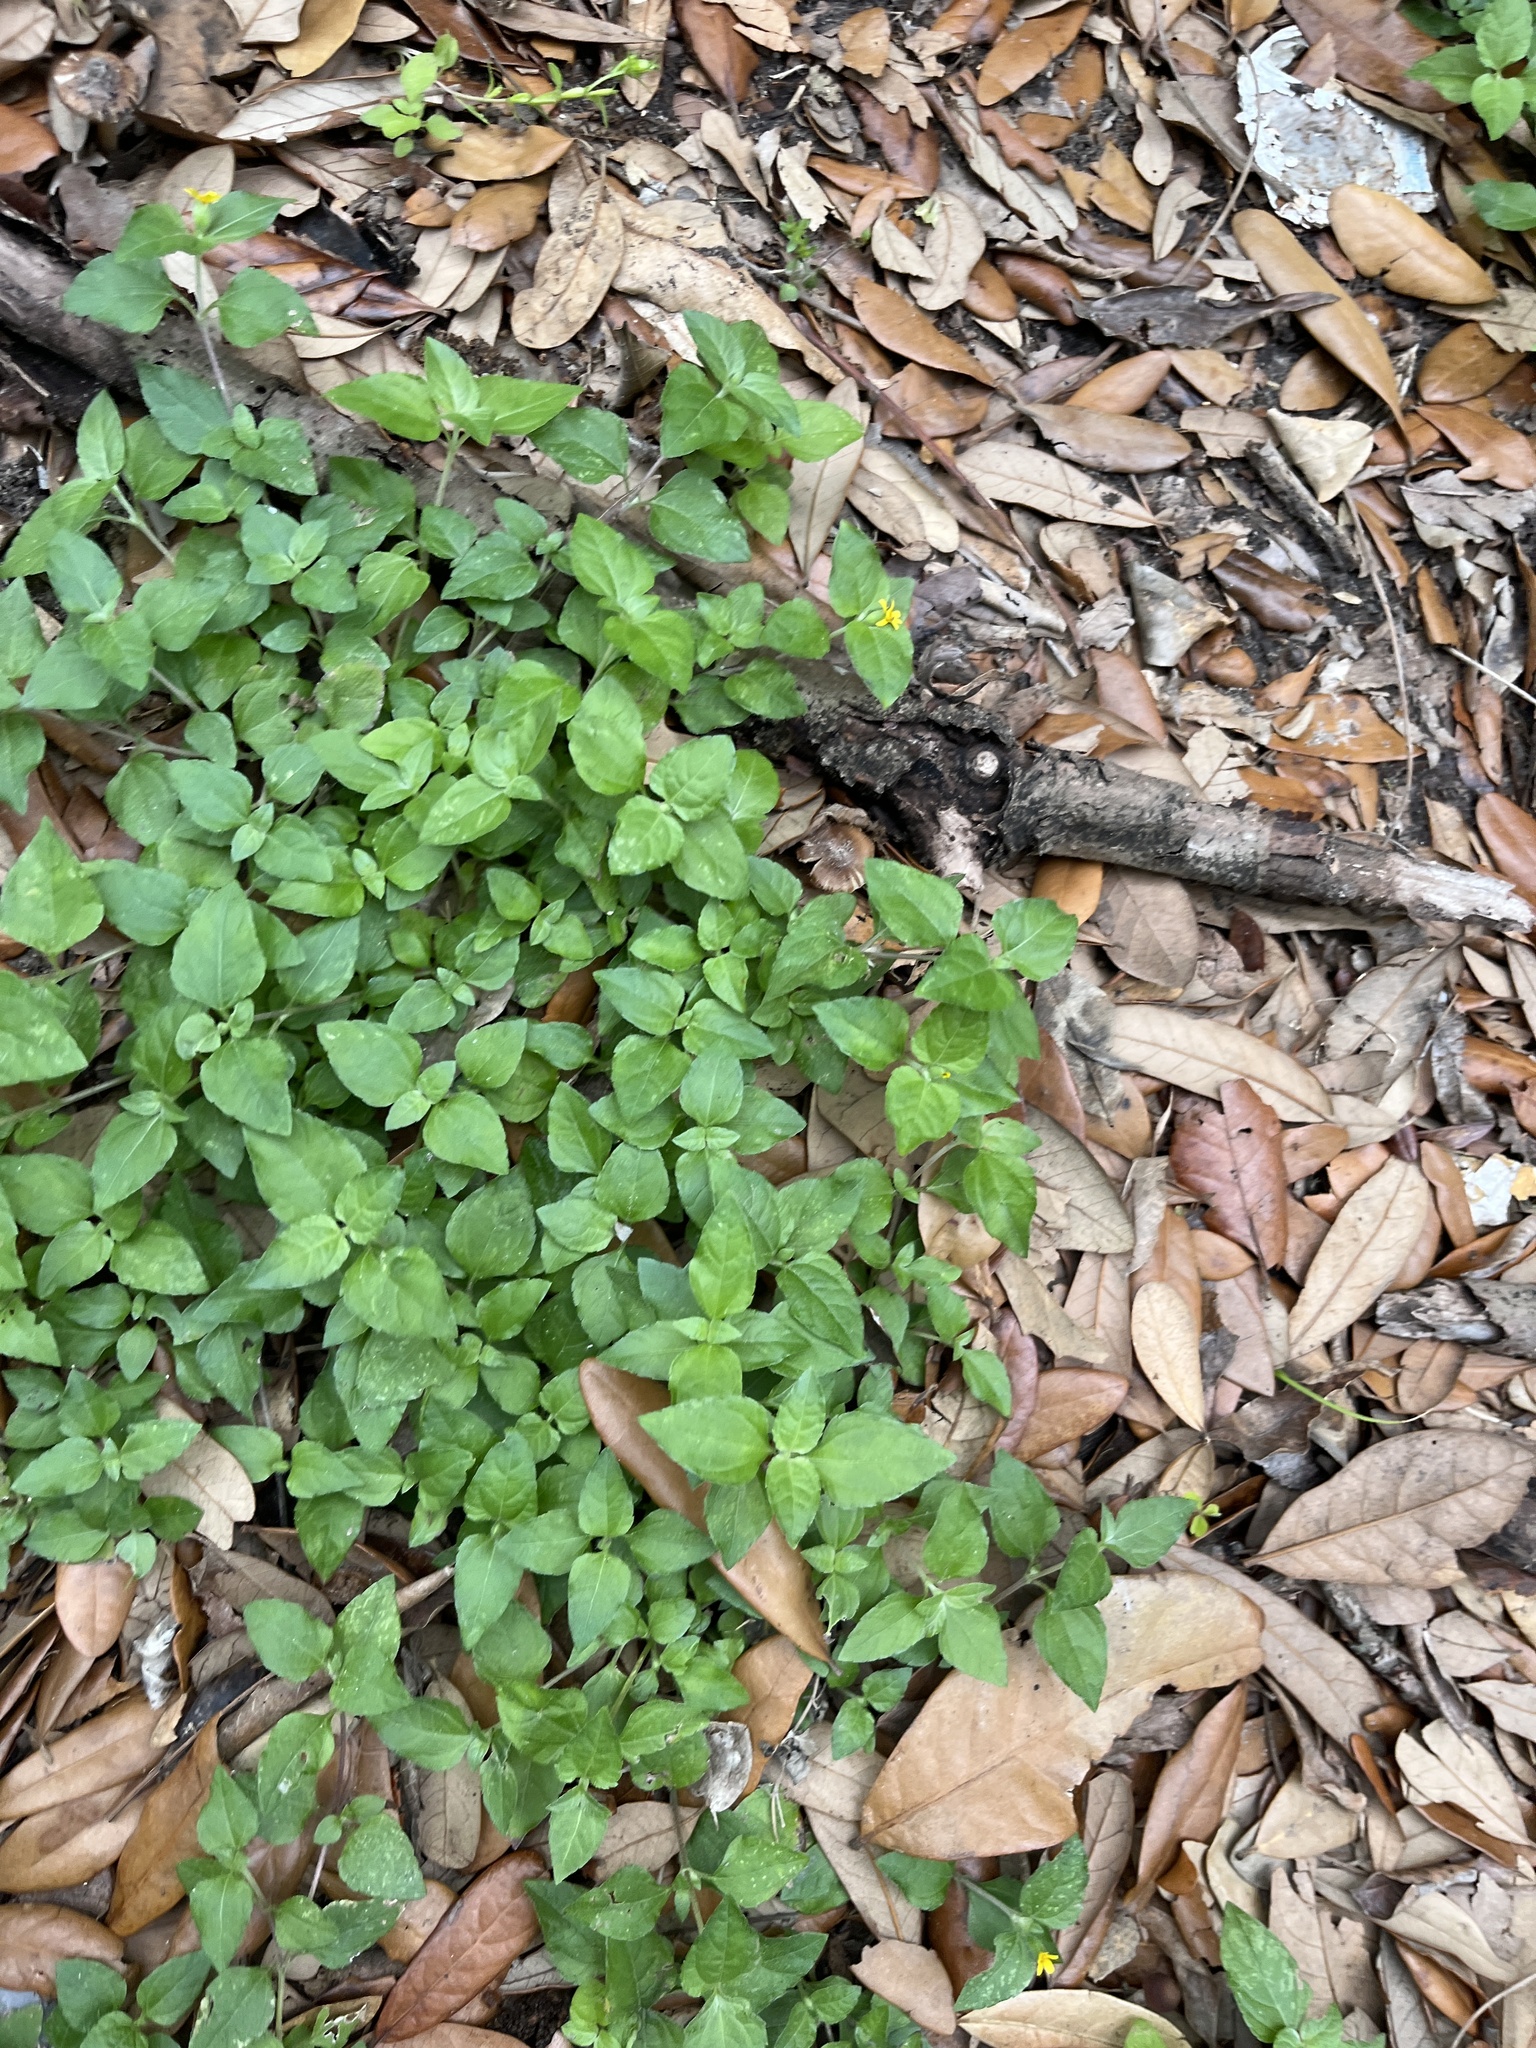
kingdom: Plantae
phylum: Tracheophyta
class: Magnoliopsida
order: Asterales
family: Asteraceae
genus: Calyptocarpus
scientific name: Calyptocarpus vialis
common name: Straggler daisy
